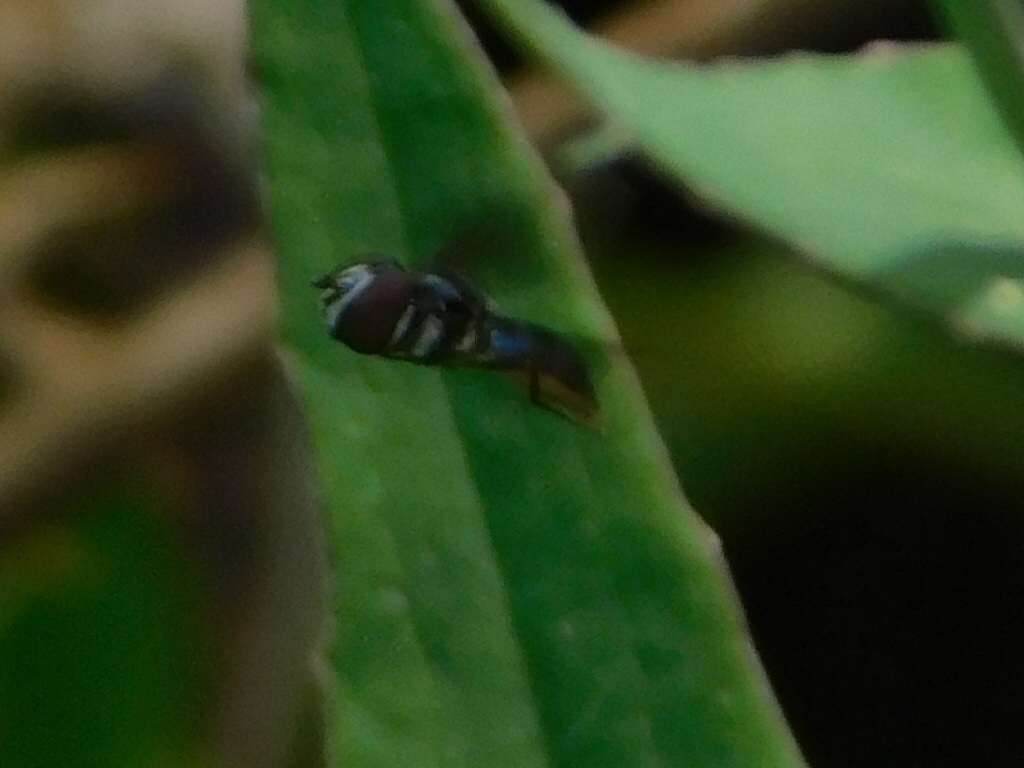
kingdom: Animalia
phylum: Arthropoda
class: Insecta
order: Diptera
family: Syrphidae
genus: Ocyptamus
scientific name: Ocyptamus dimidiatus
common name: Syrphid fly
